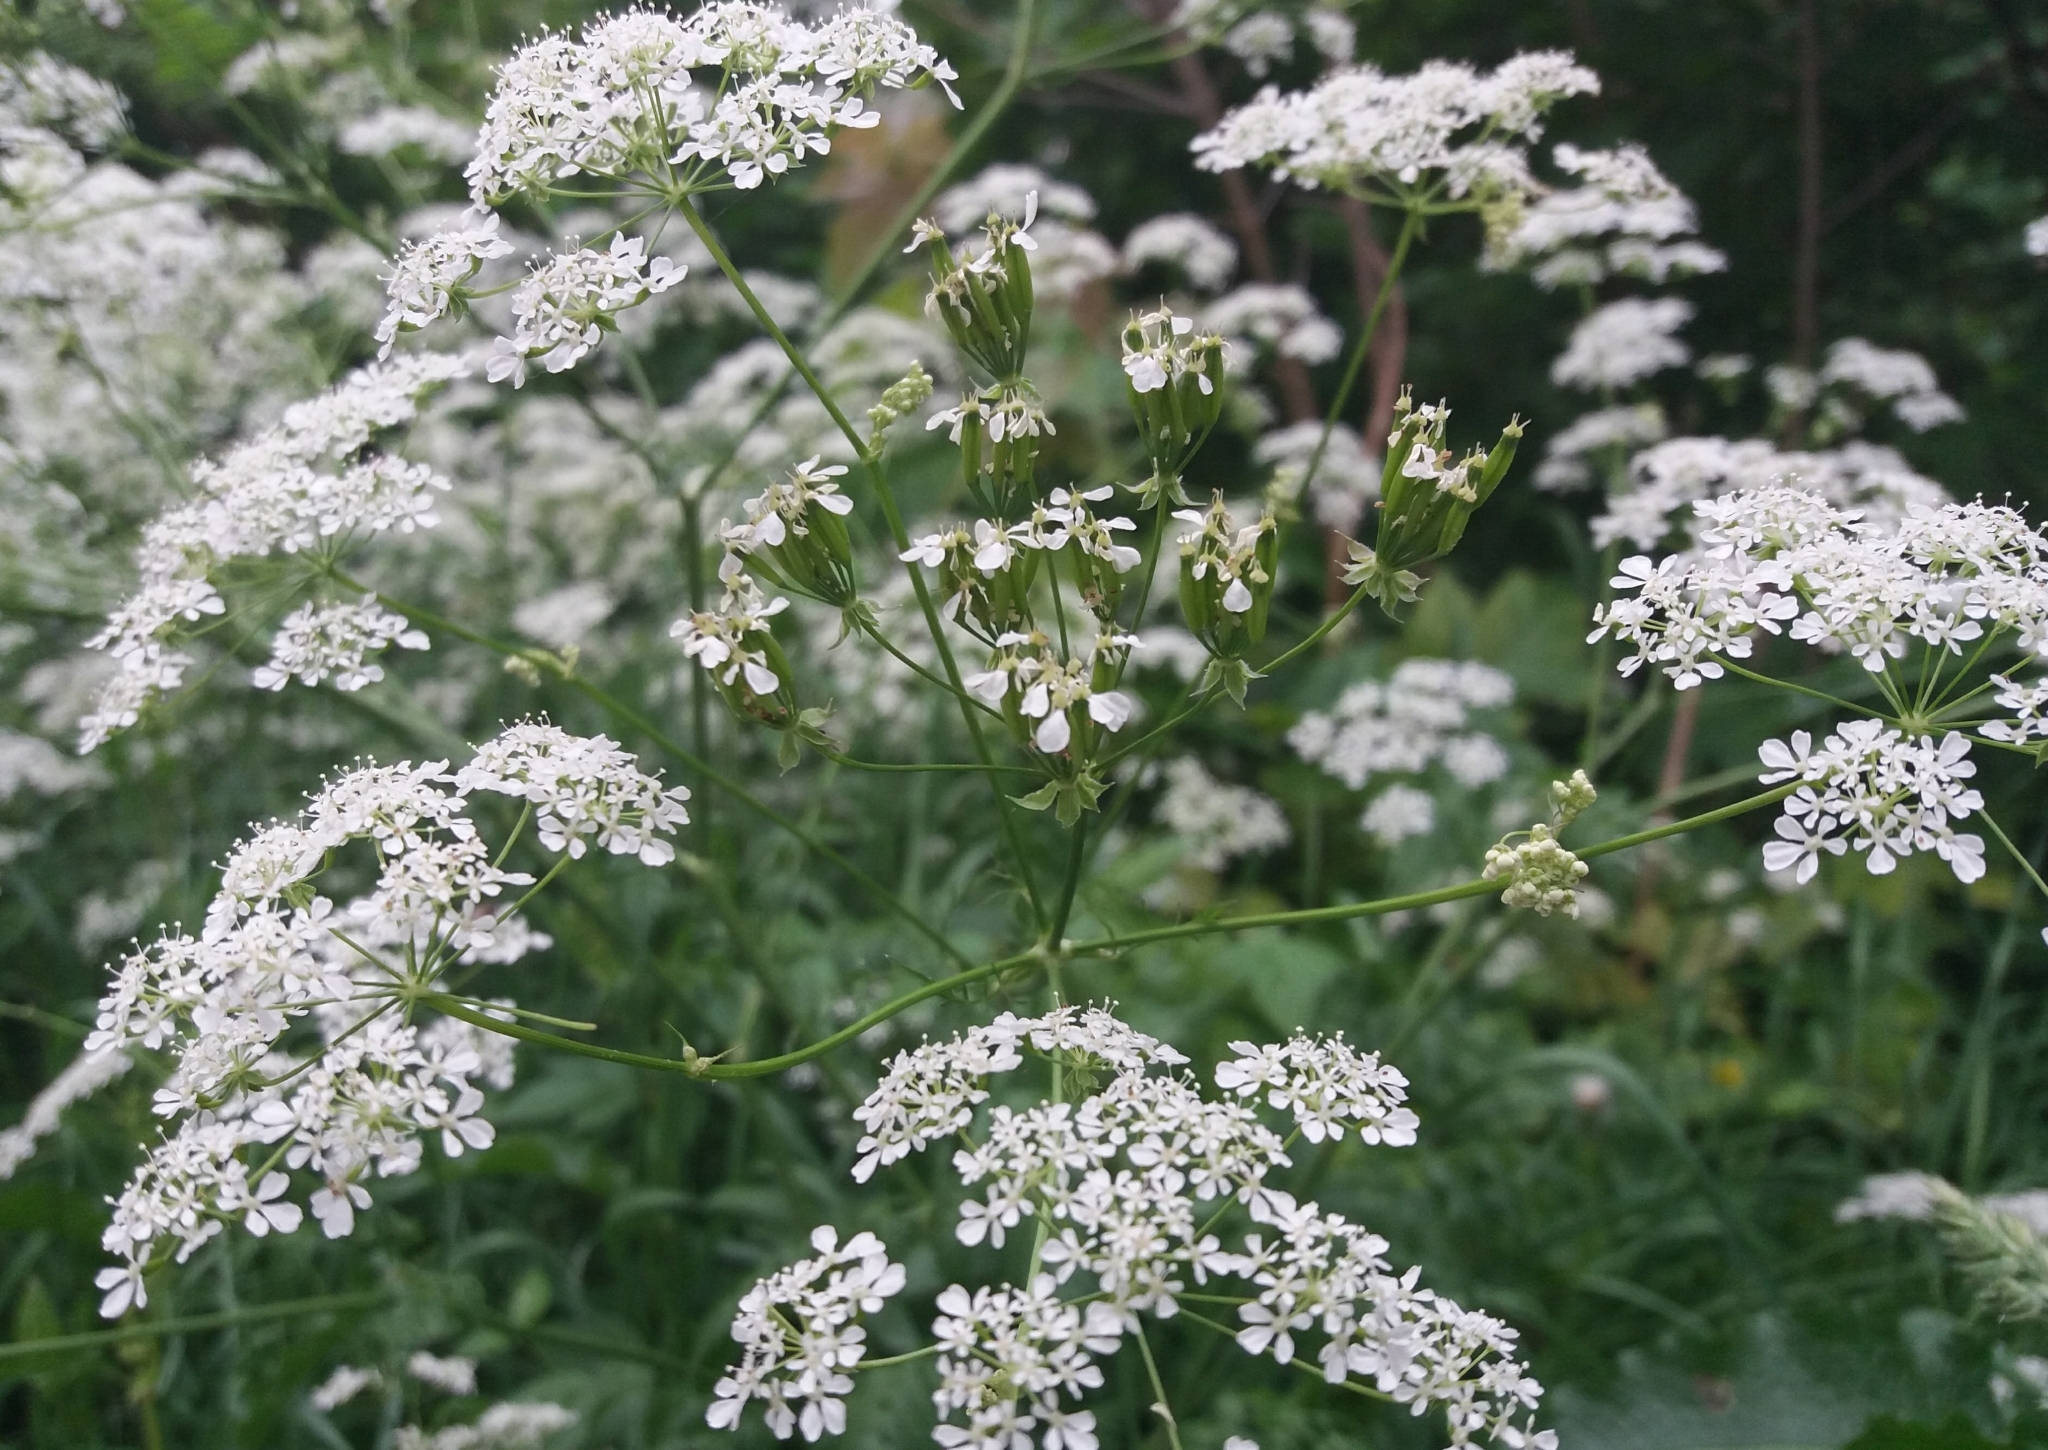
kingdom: Plantae
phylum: Tracheophyta
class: Magnoliopsida
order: Apiales
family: Apiaceae
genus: Anthriscus
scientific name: Anthriscus sylvestris
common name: Cow parsley
